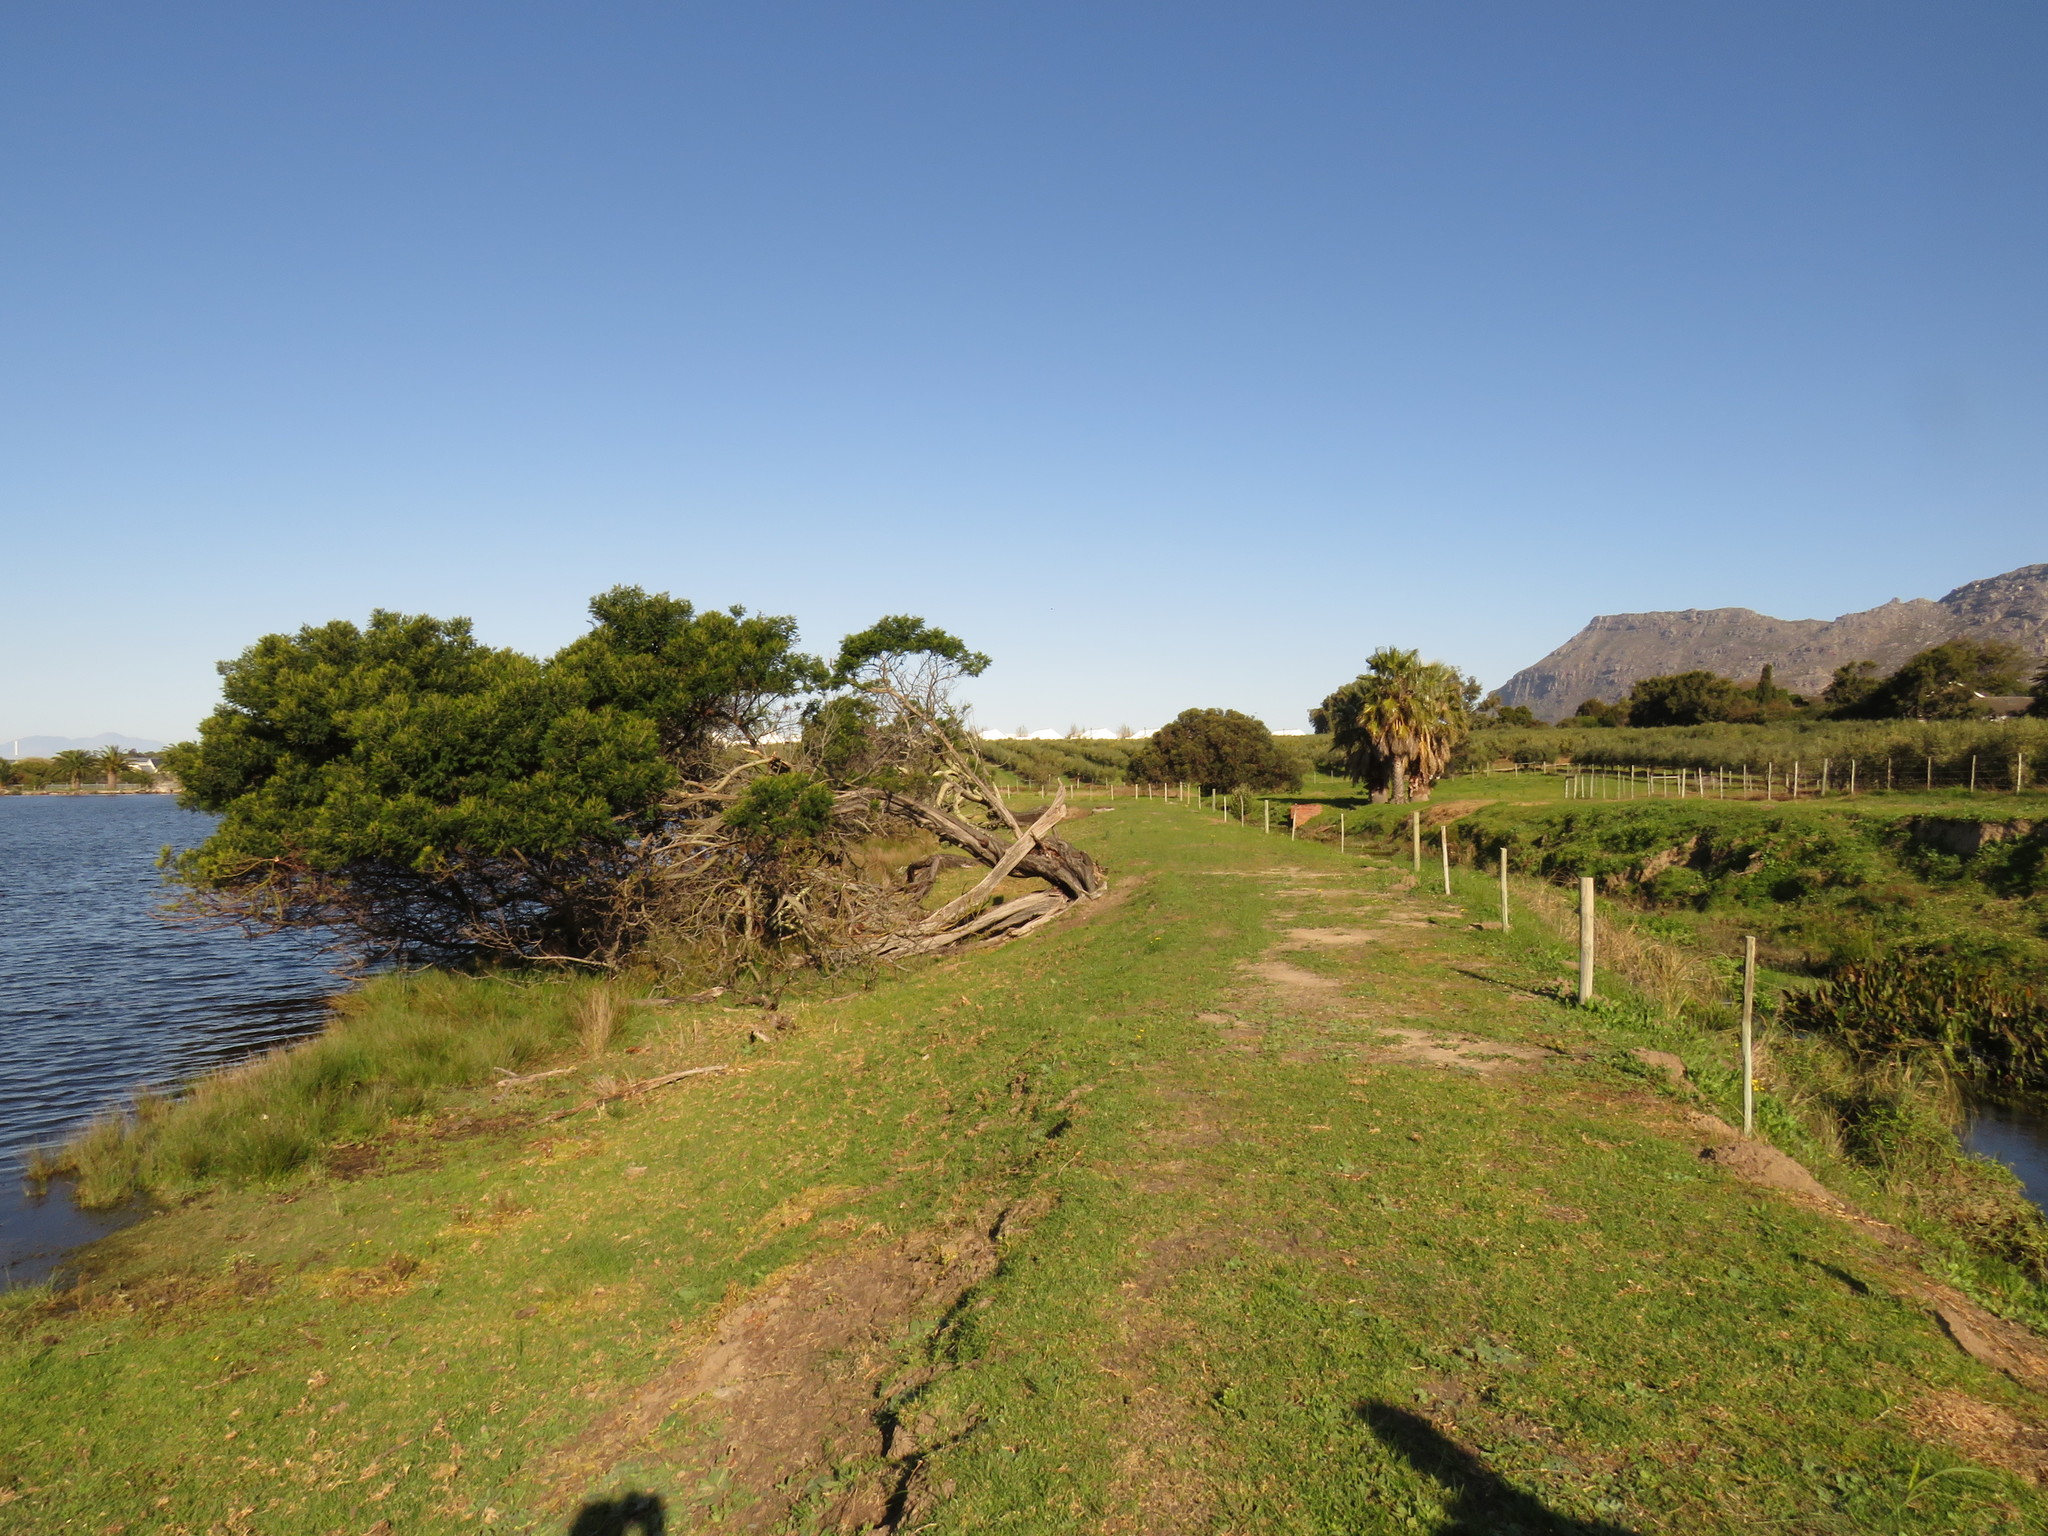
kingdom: Plantae
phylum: Tracheophyta
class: Magnoliopsida
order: Fabales
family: Fabaceae
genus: Acacia
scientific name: Acacia mearnsii
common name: Black wattle
